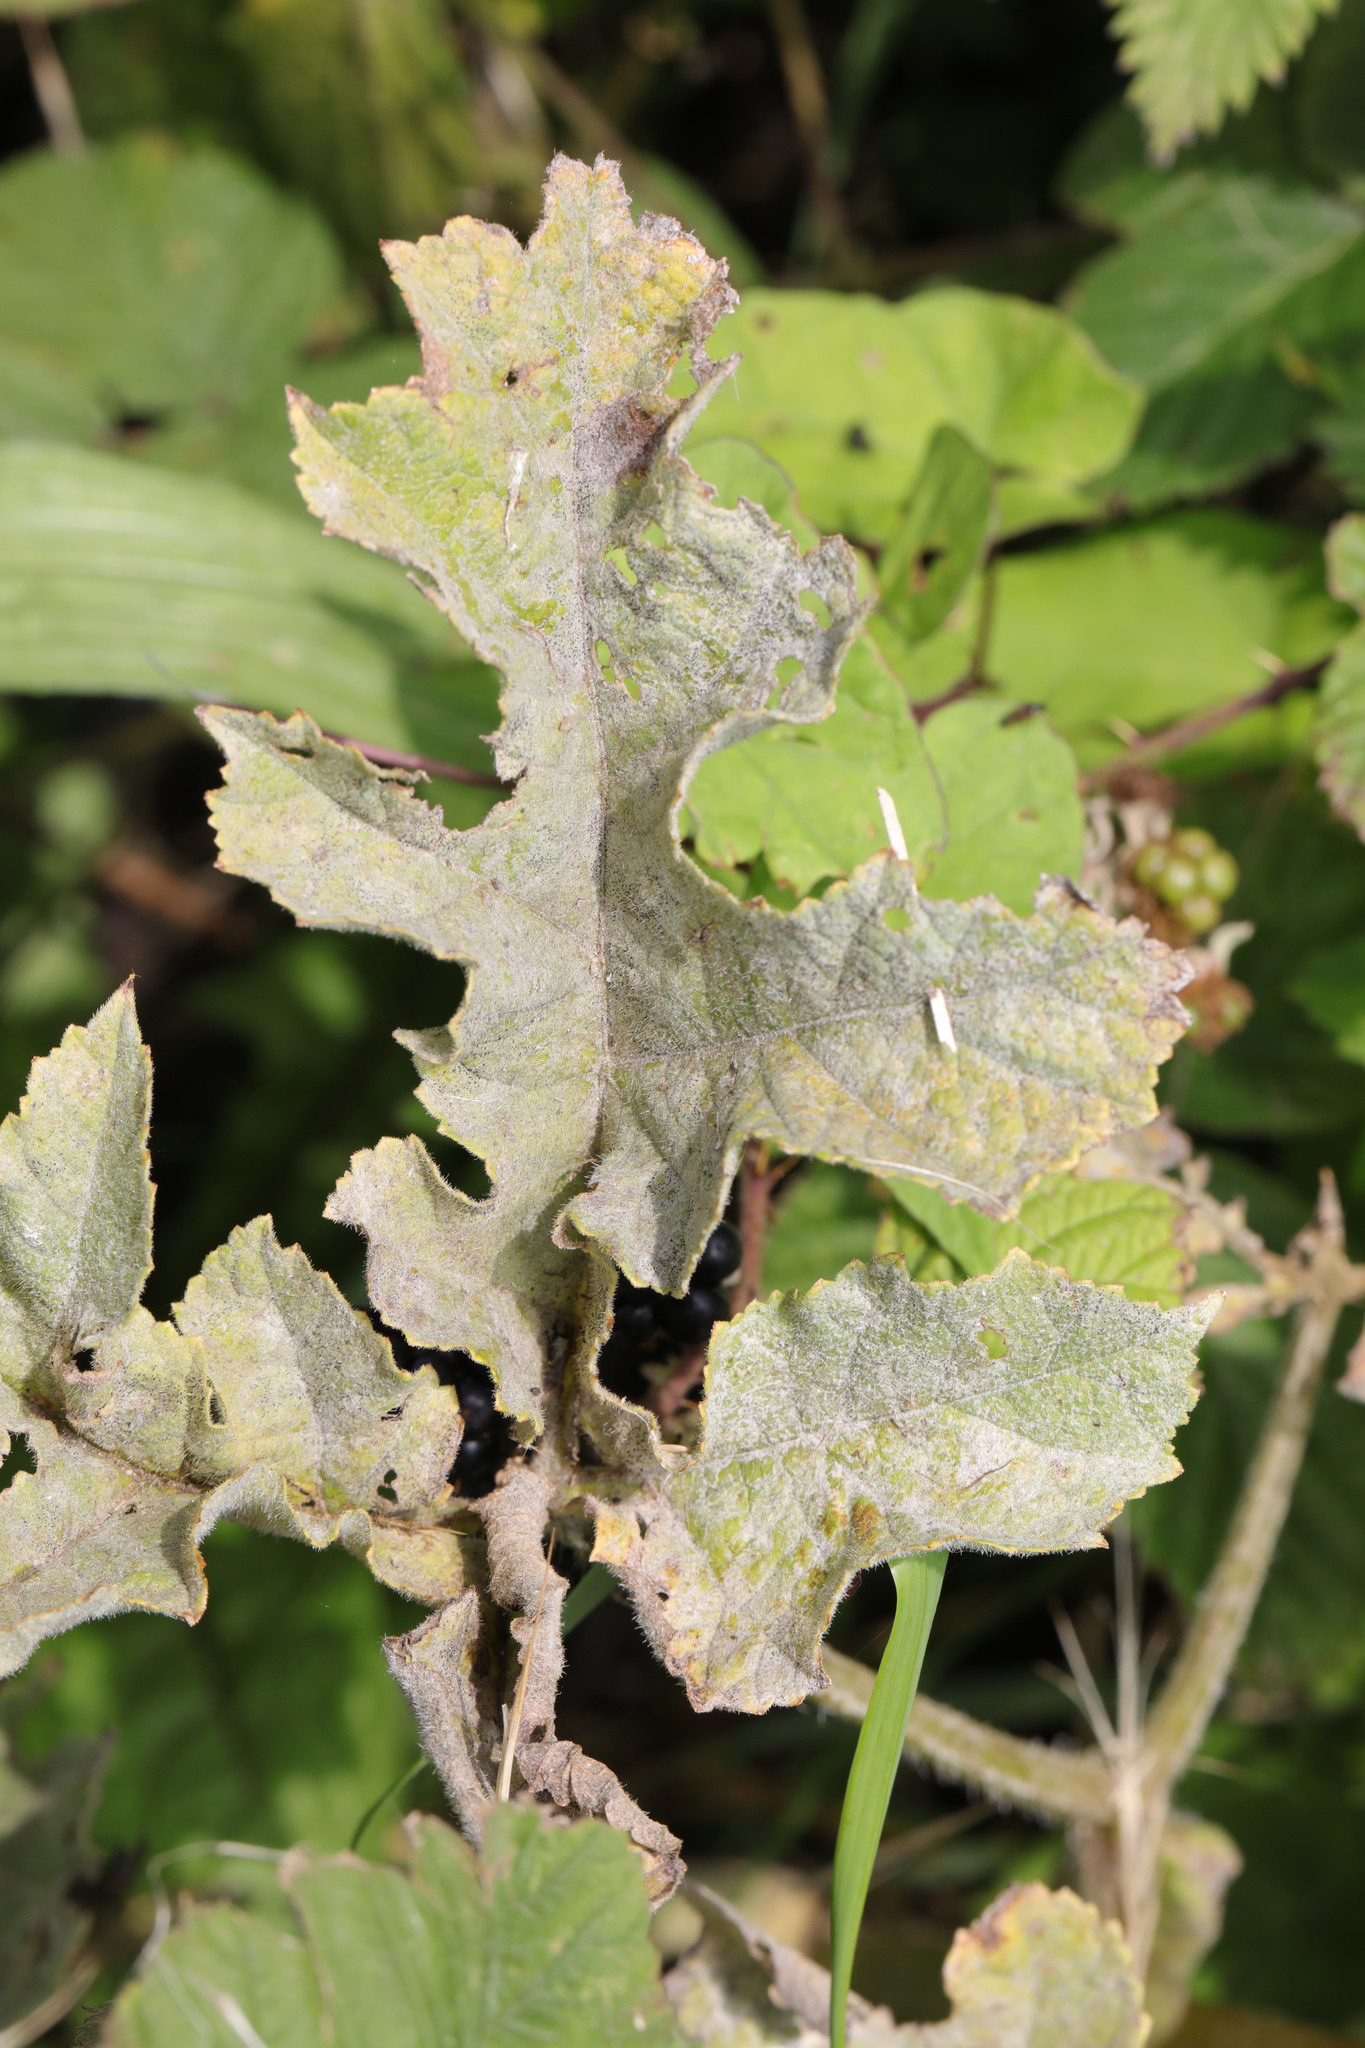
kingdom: Fungi
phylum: Ascomycota
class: Leotiomycetes
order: Helotiales
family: Erysiphaceae
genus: Erysiphe
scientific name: Erysiphe heraclei
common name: Umbellifer mildew
